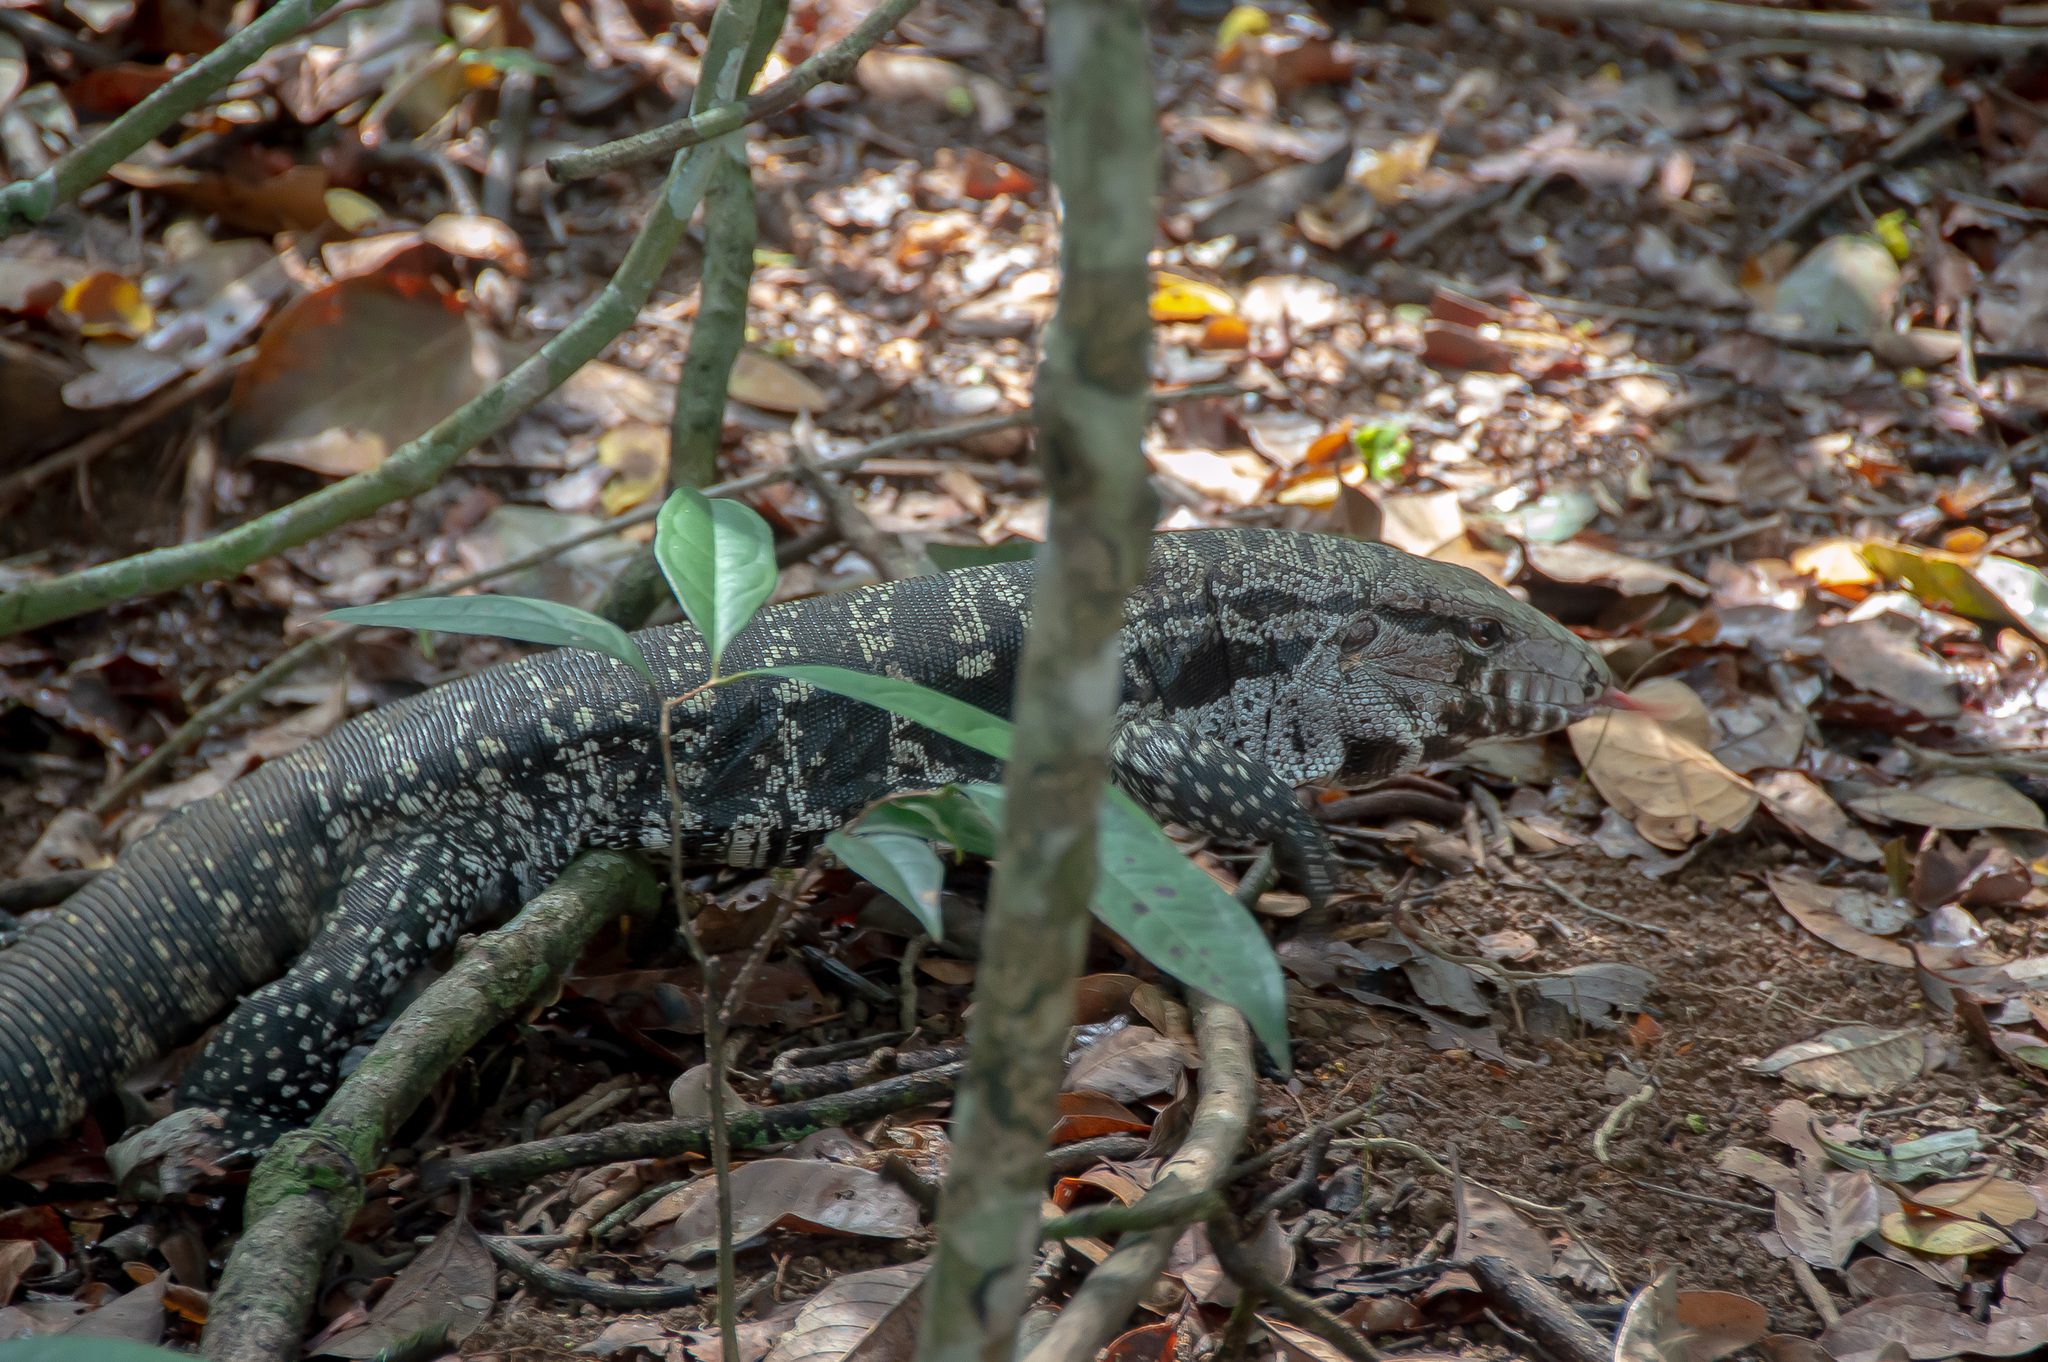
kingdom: Animalia
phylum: Chordata
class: Squamata
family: Teiidae
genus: Salvator
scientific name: Salvator merianae
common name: Argentine black and white tegu
